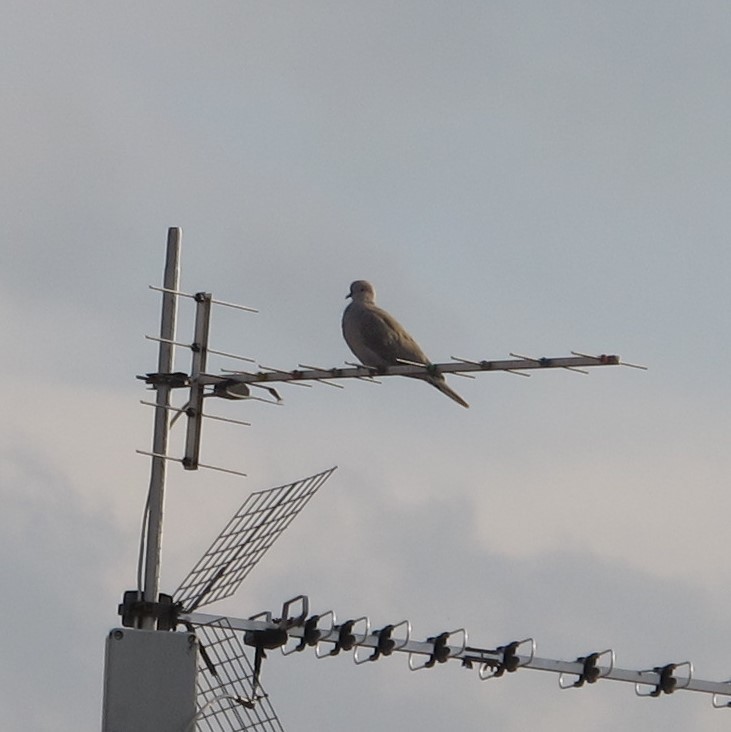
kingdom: Animalia
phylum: Chordata
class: Aves
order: Columbiformes
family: Columbidae
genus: Streptopelia
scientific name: Streptopelia decaocto
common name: Eurasian collared dove
